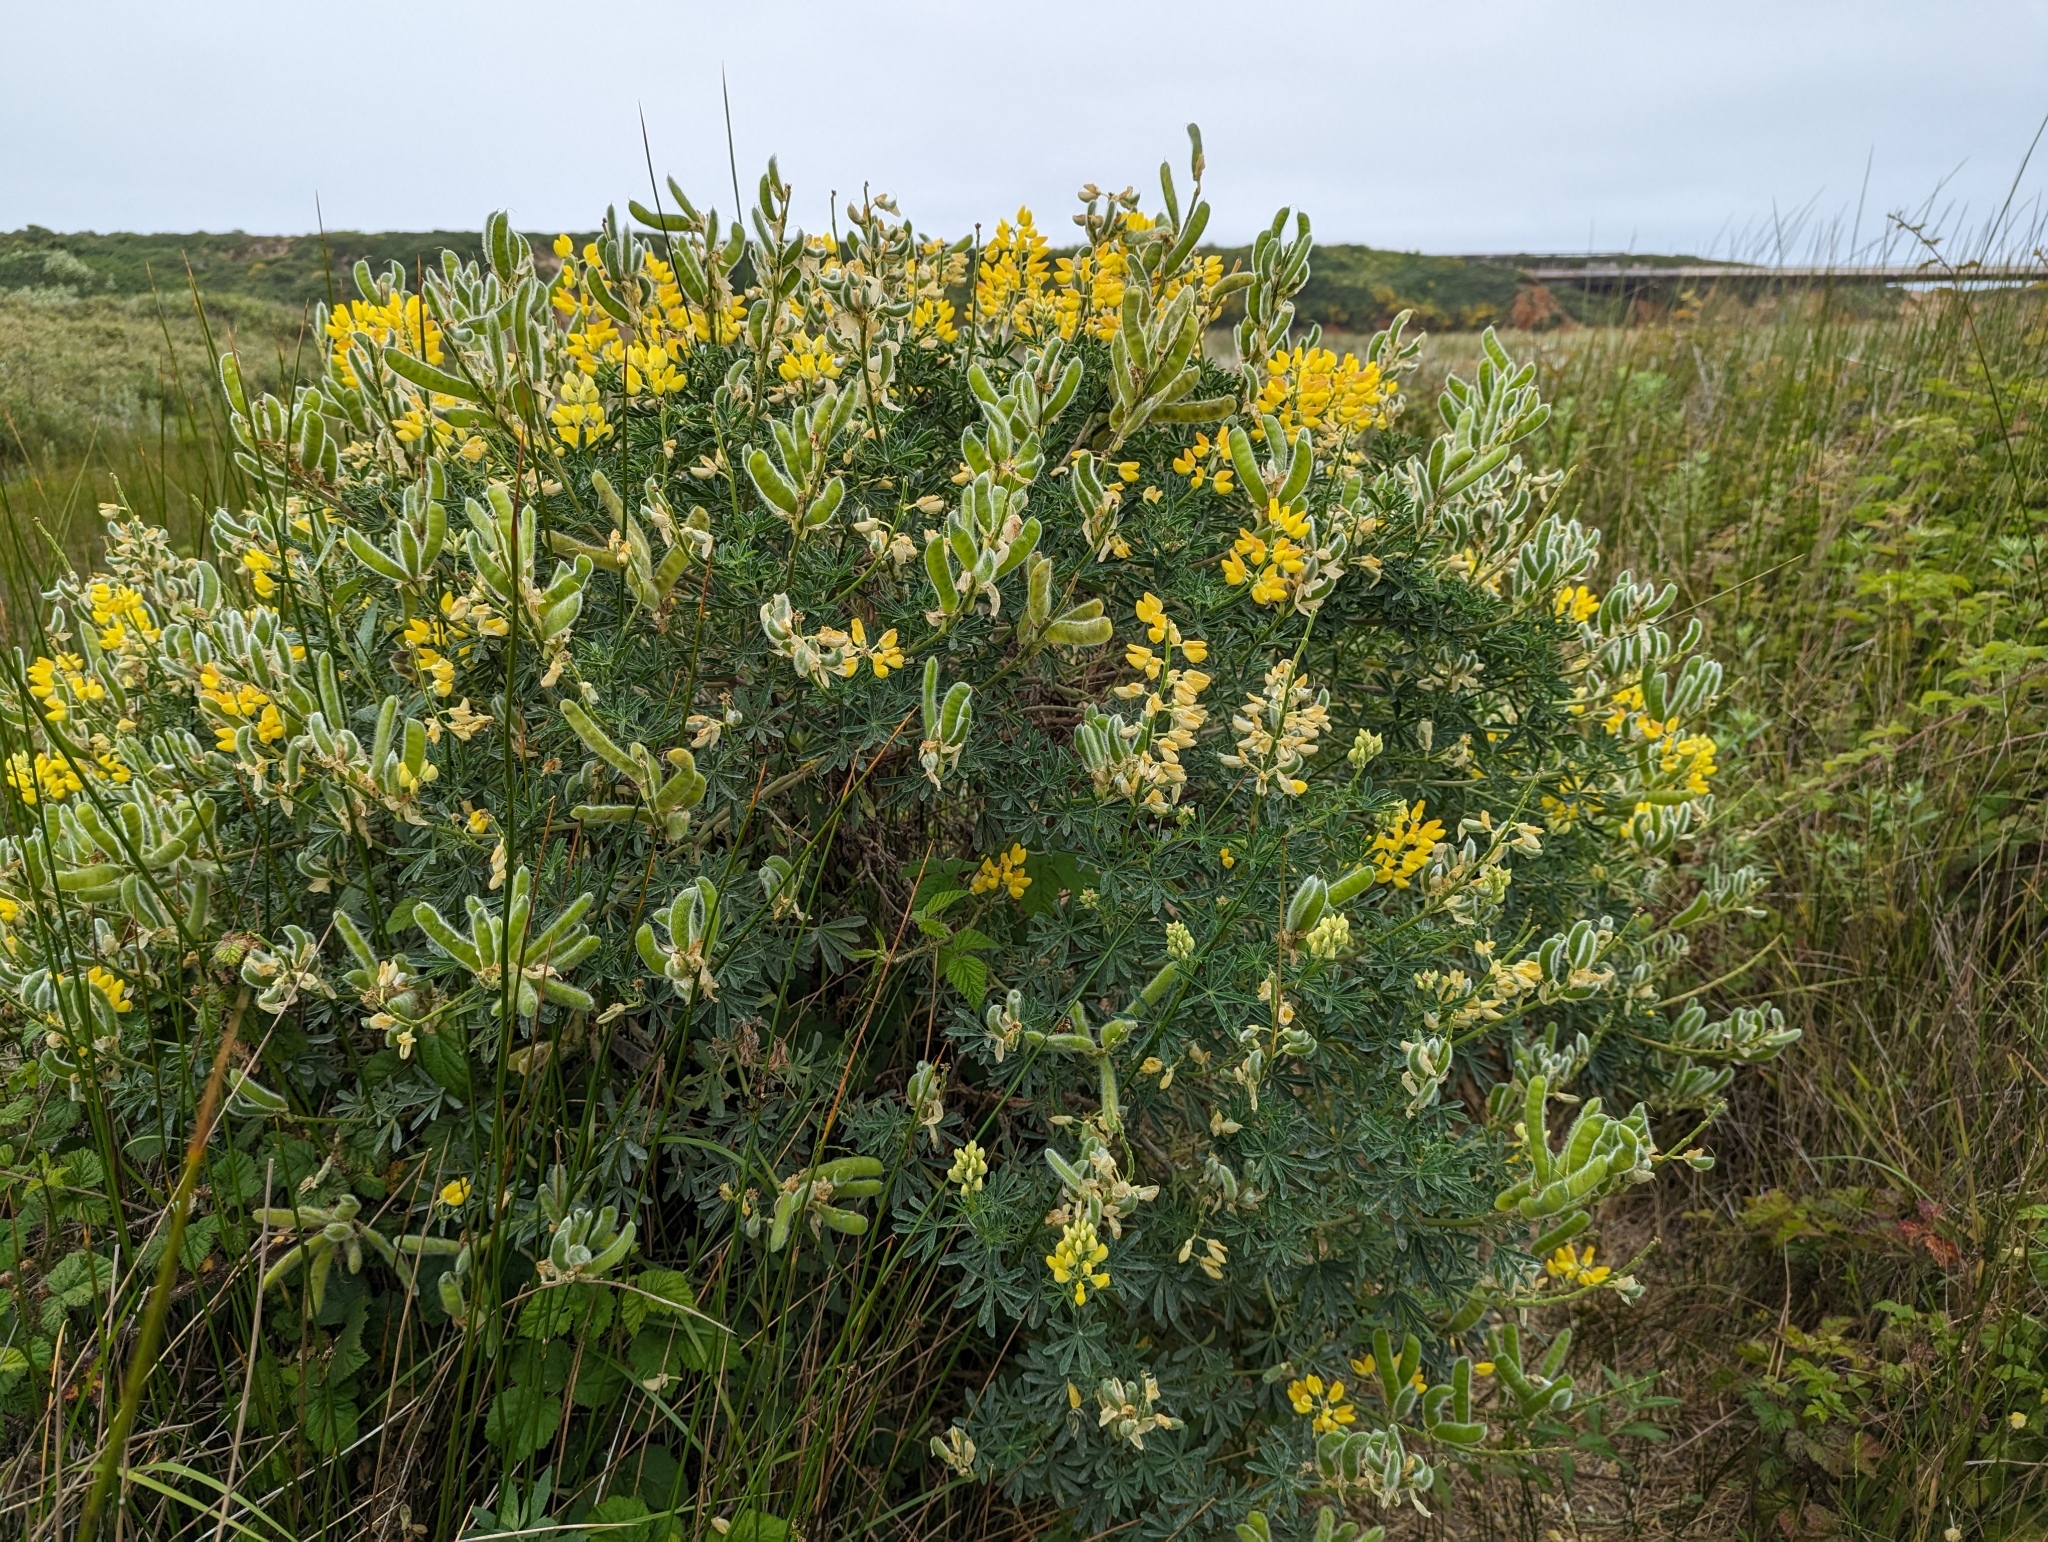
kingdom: Plantae
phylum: Tracheophyta
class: Magnoliopsida
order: Fabales
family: Fabaceae
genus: Lupinus
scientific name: Lupinus arboreus
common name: Yellow bush lupine
